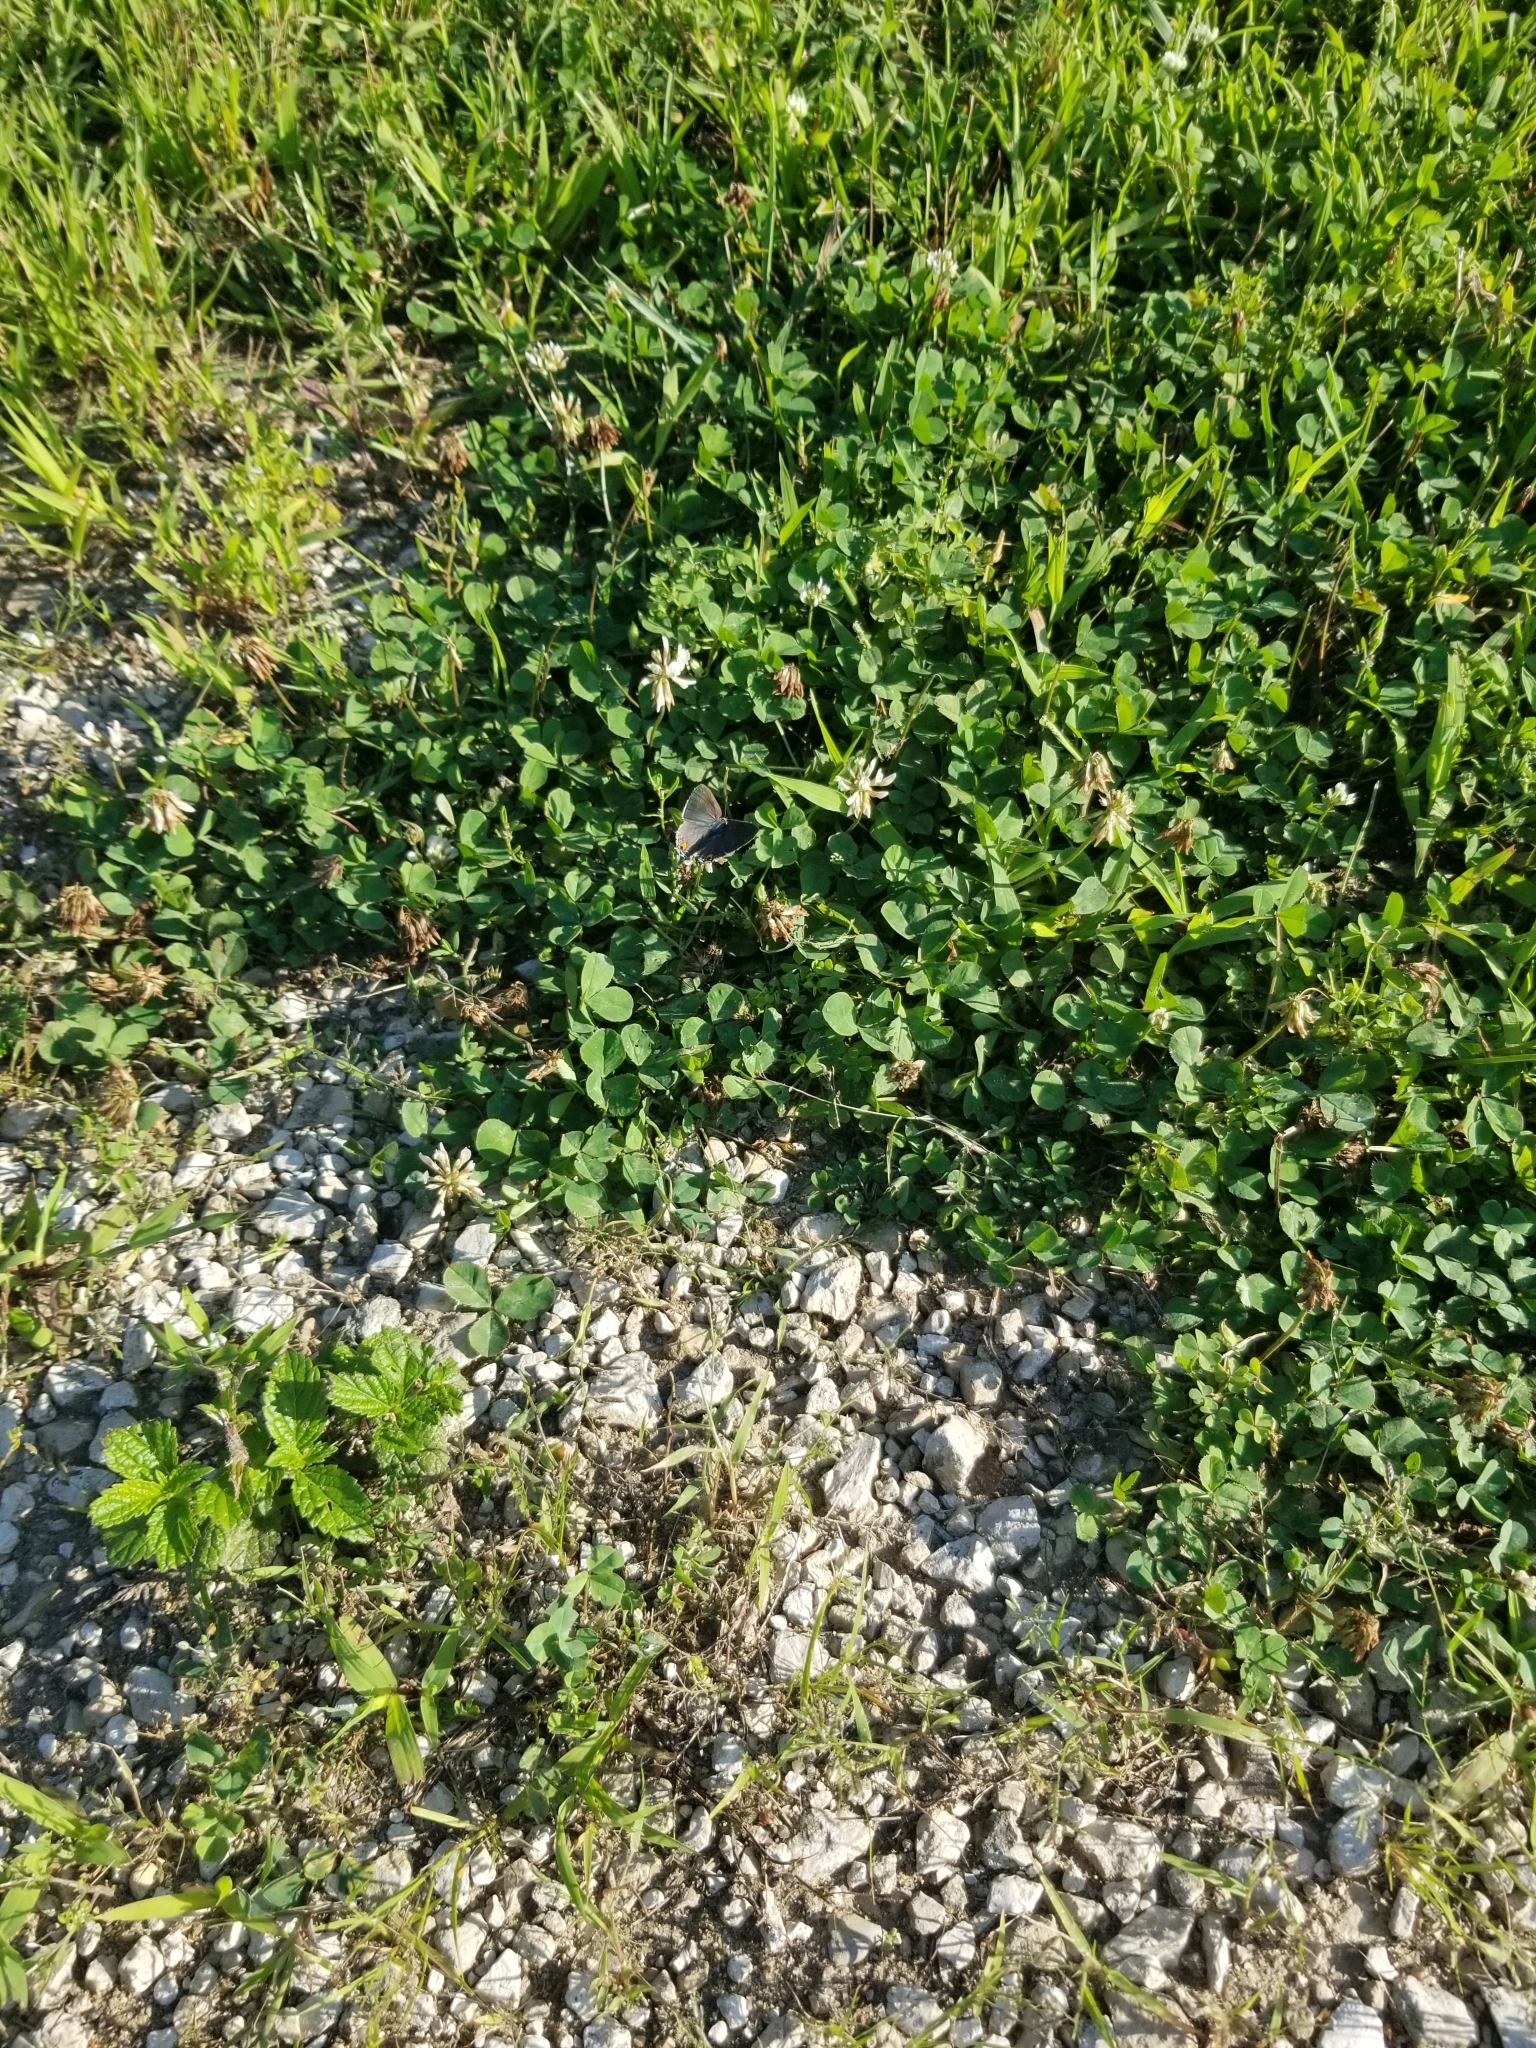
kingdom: Animalia
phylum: Arthropoda
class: Insecta
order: Lepidoptera
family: Lycaenidae
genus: Strymon
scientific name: Strymon melinus
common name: Gray hairstreak
